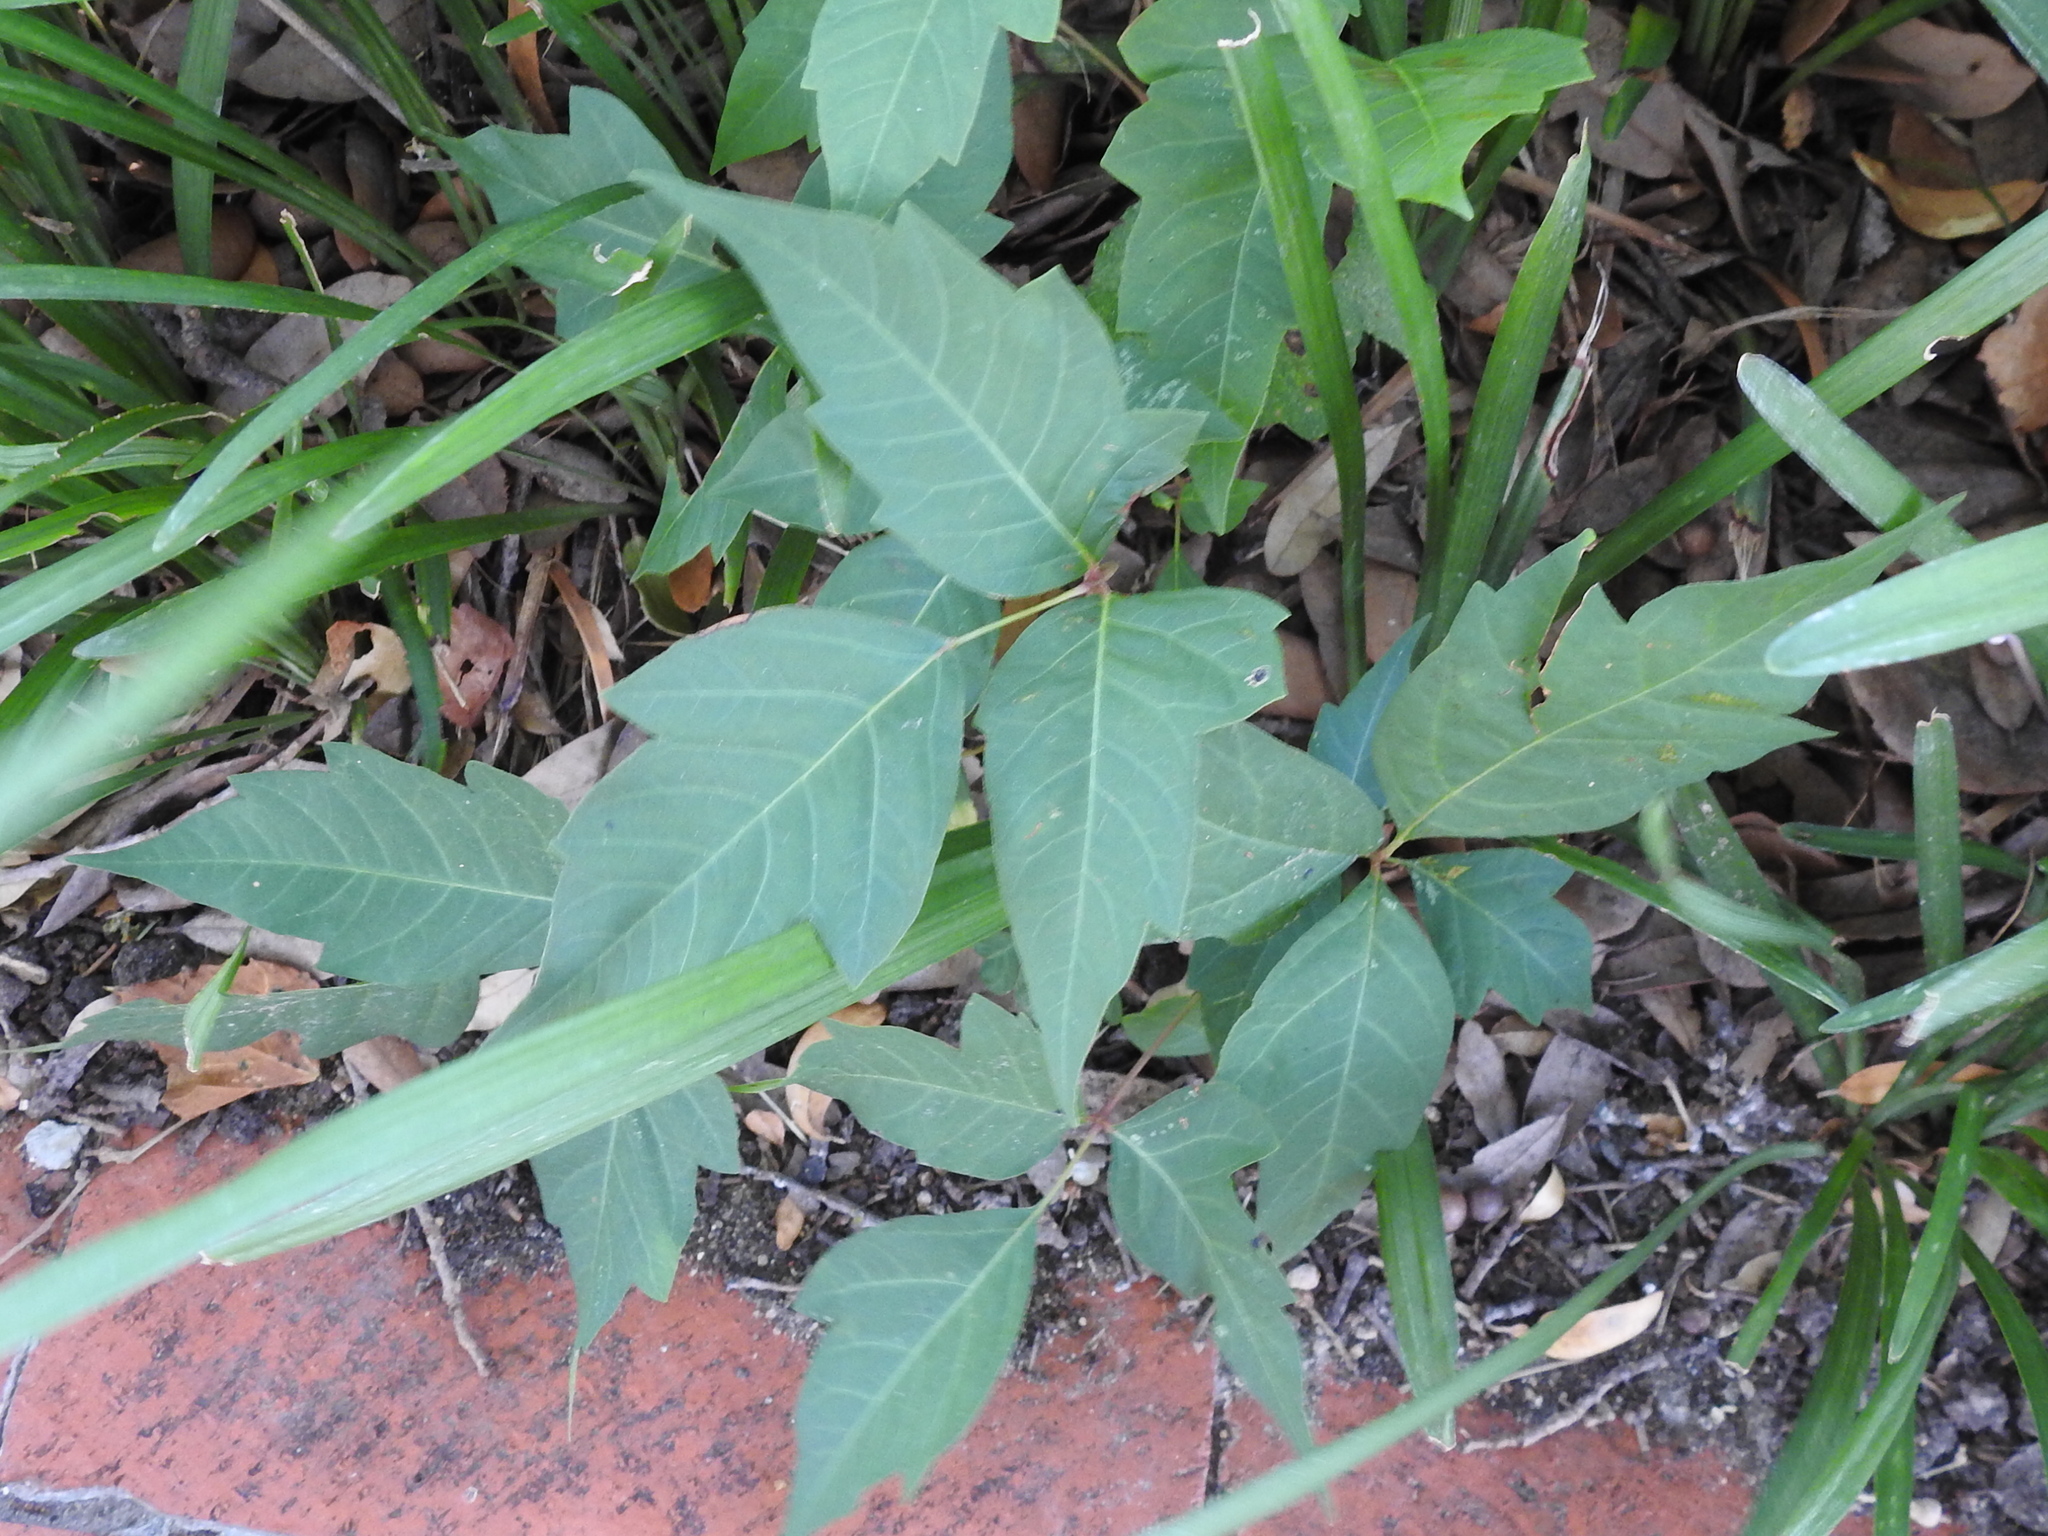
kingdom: Plantae
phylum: Tracheophyta
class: Magnoliopsida
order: Sapindales
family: Anacardiaceae
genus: Toxicodendron
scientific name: Toxicodendron radicans
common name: Poison ivy
